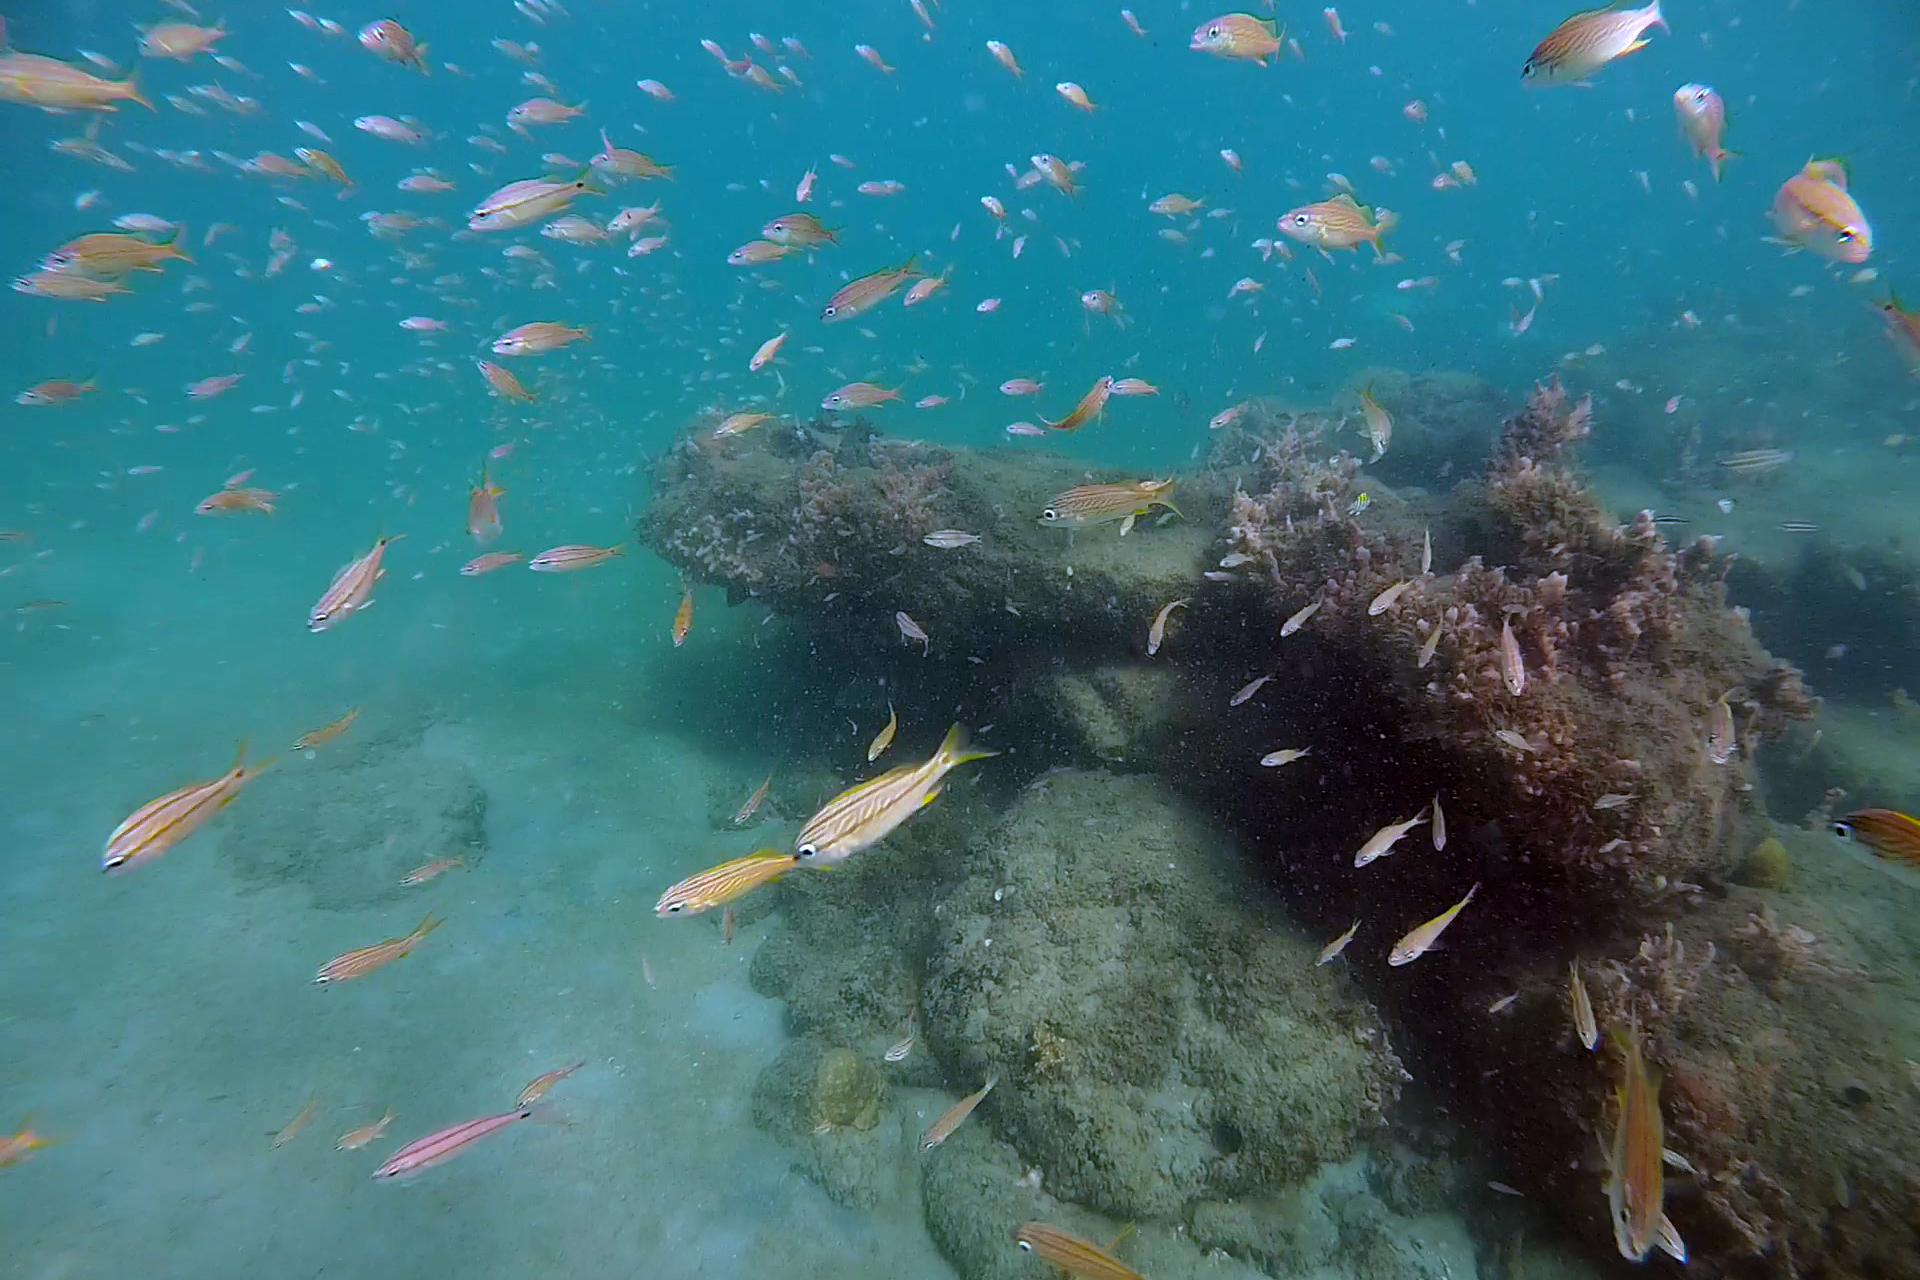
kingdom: Animalia
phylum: Chordata
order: Perciformes
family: Haemulidae
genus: Haemulon
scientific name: Haemulon flavolineatum
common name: French grunt
